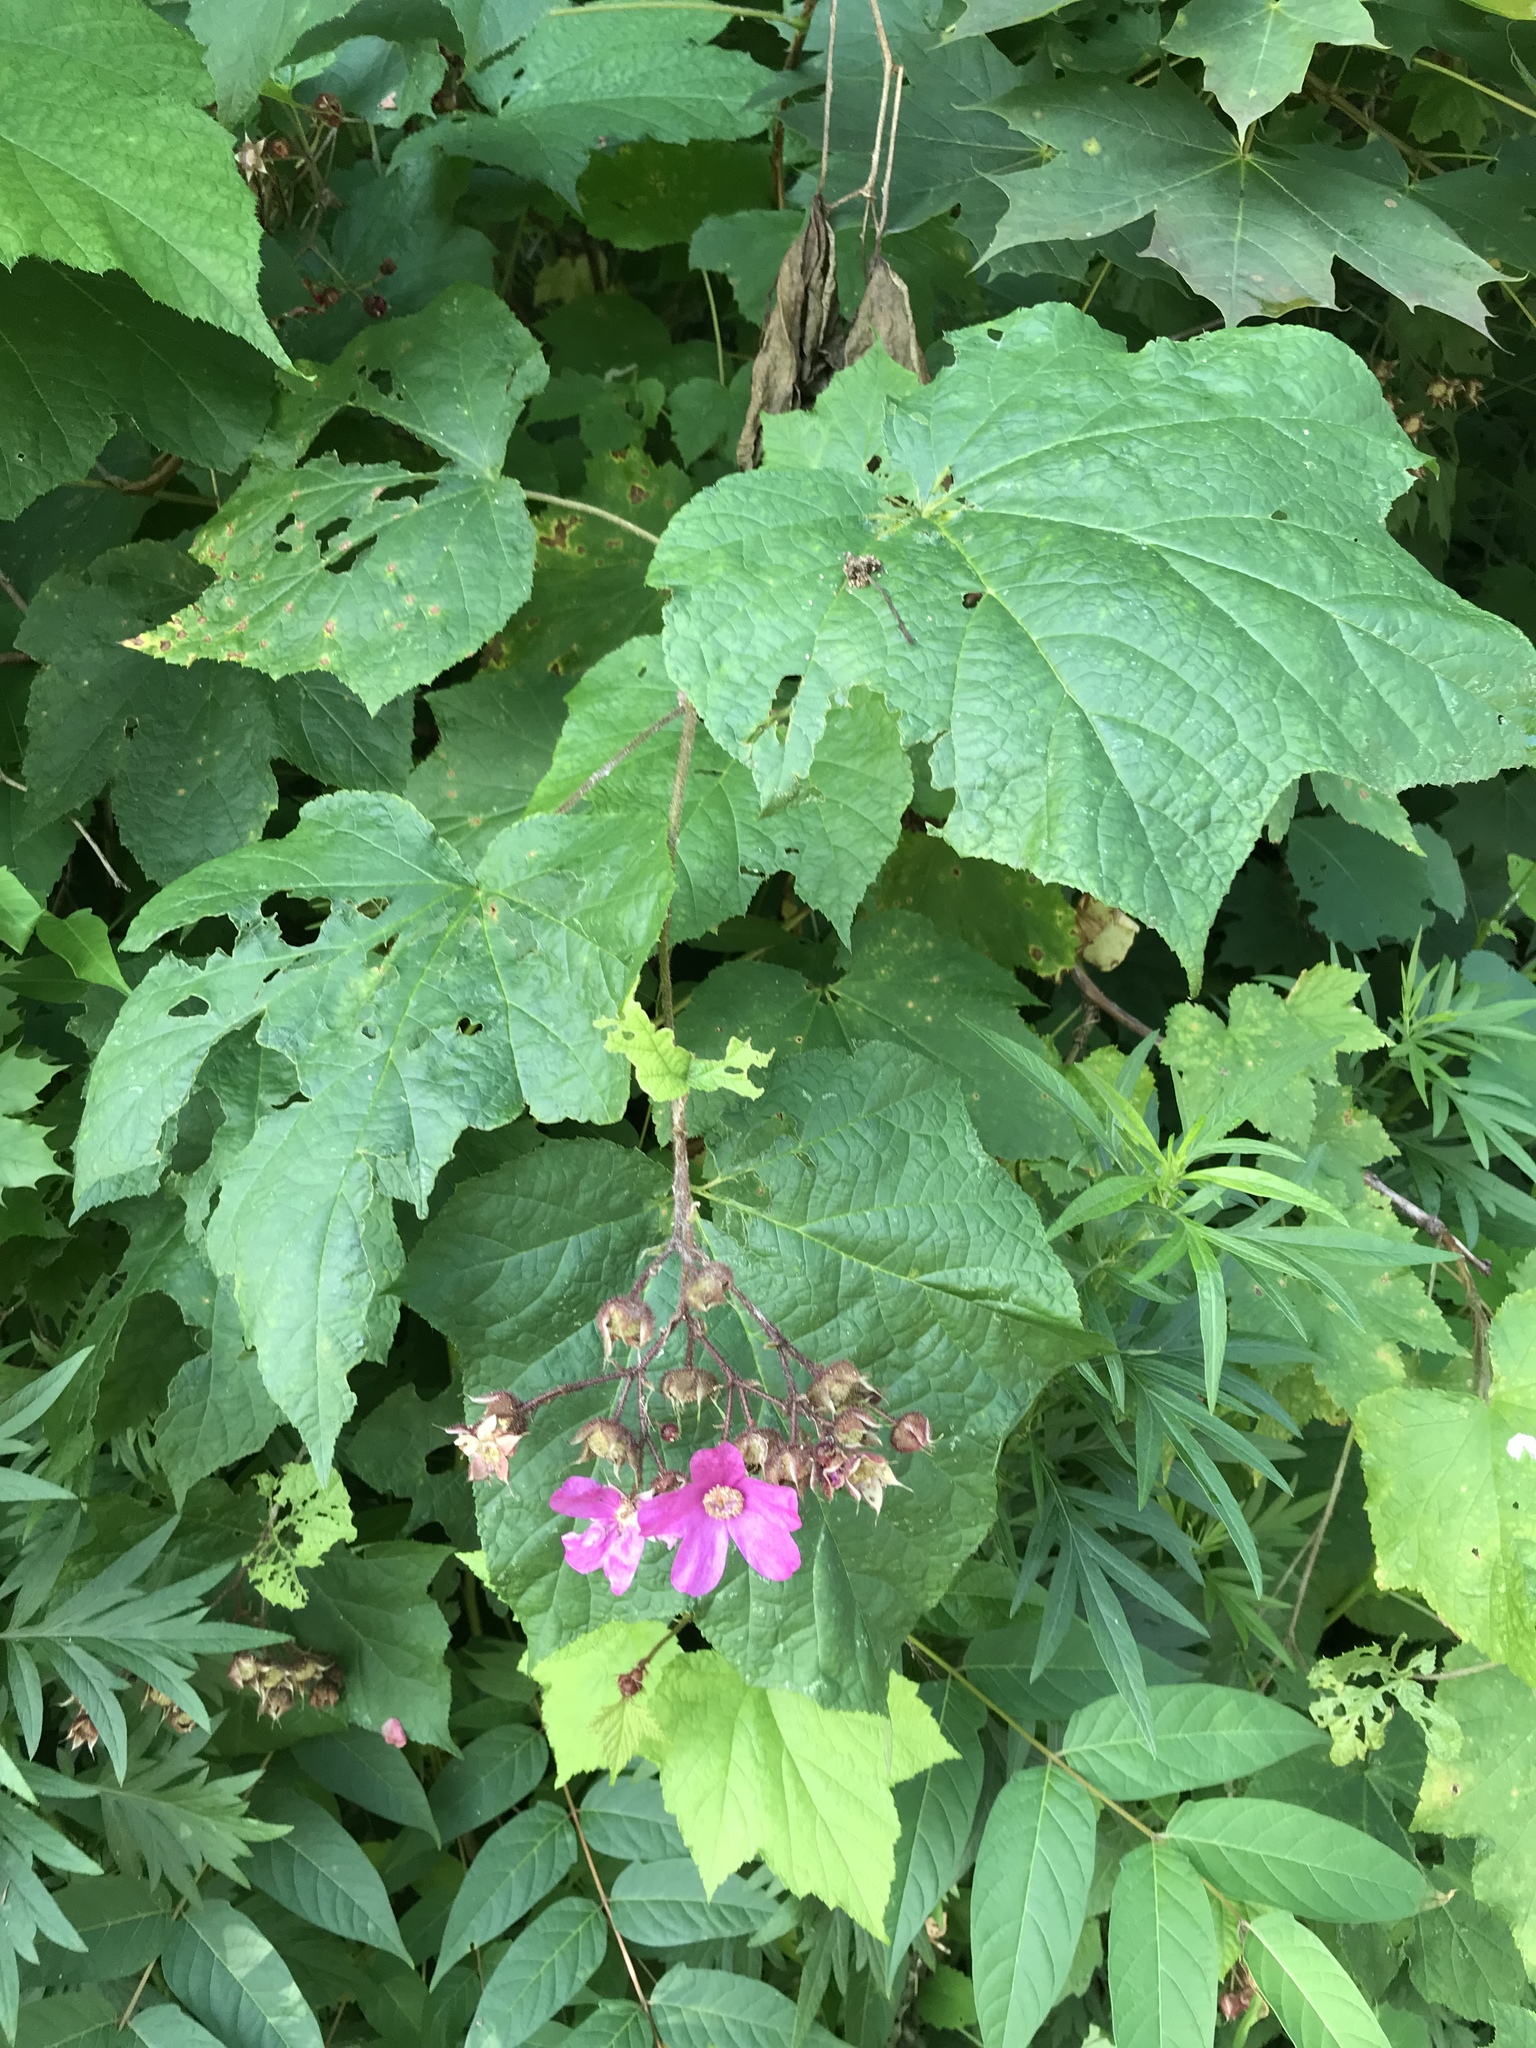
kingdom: Plantae
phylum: Tracheophyta
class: Magnoliopsida
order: Rosales
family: Rosaceae
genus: Rubus
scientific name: Rubus odoratus
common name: Purple-flowered raspberry
